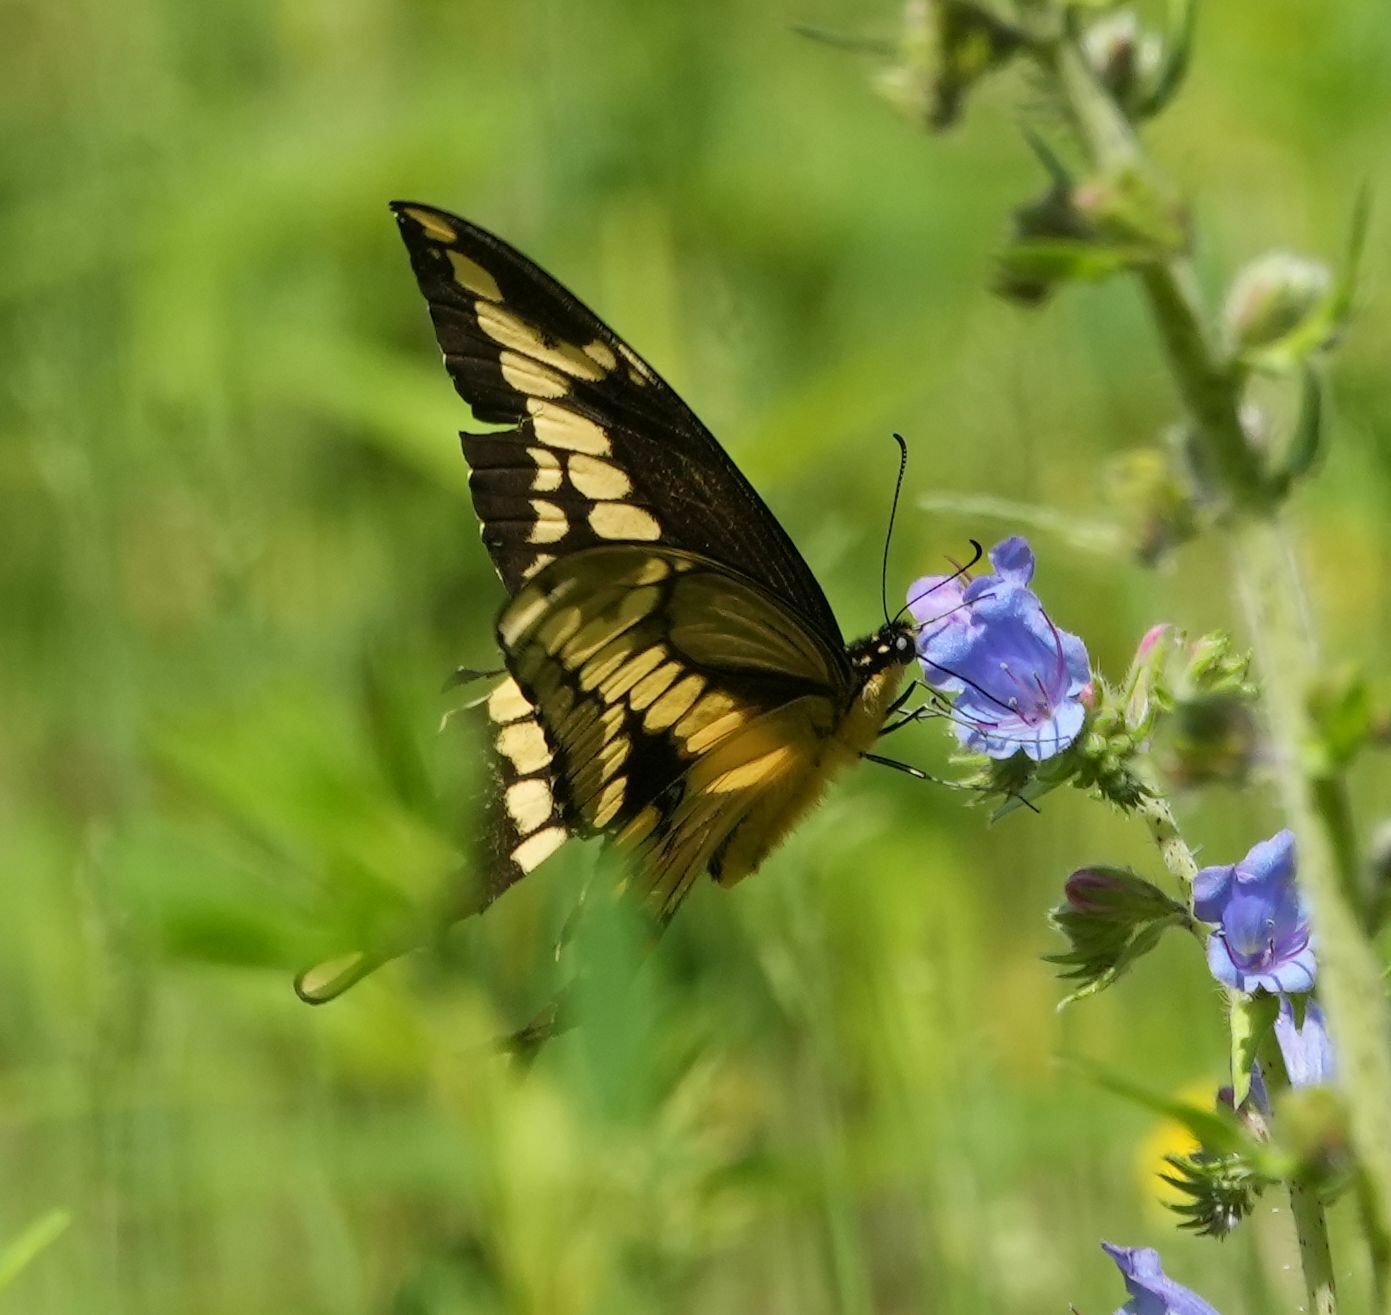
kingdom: Animalia
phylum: Arthropoda
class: Insecta
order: Lepidoptera
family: Papilionidae
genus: Papilio
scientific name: Papilio cresphontes
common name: Giant swallowtail
